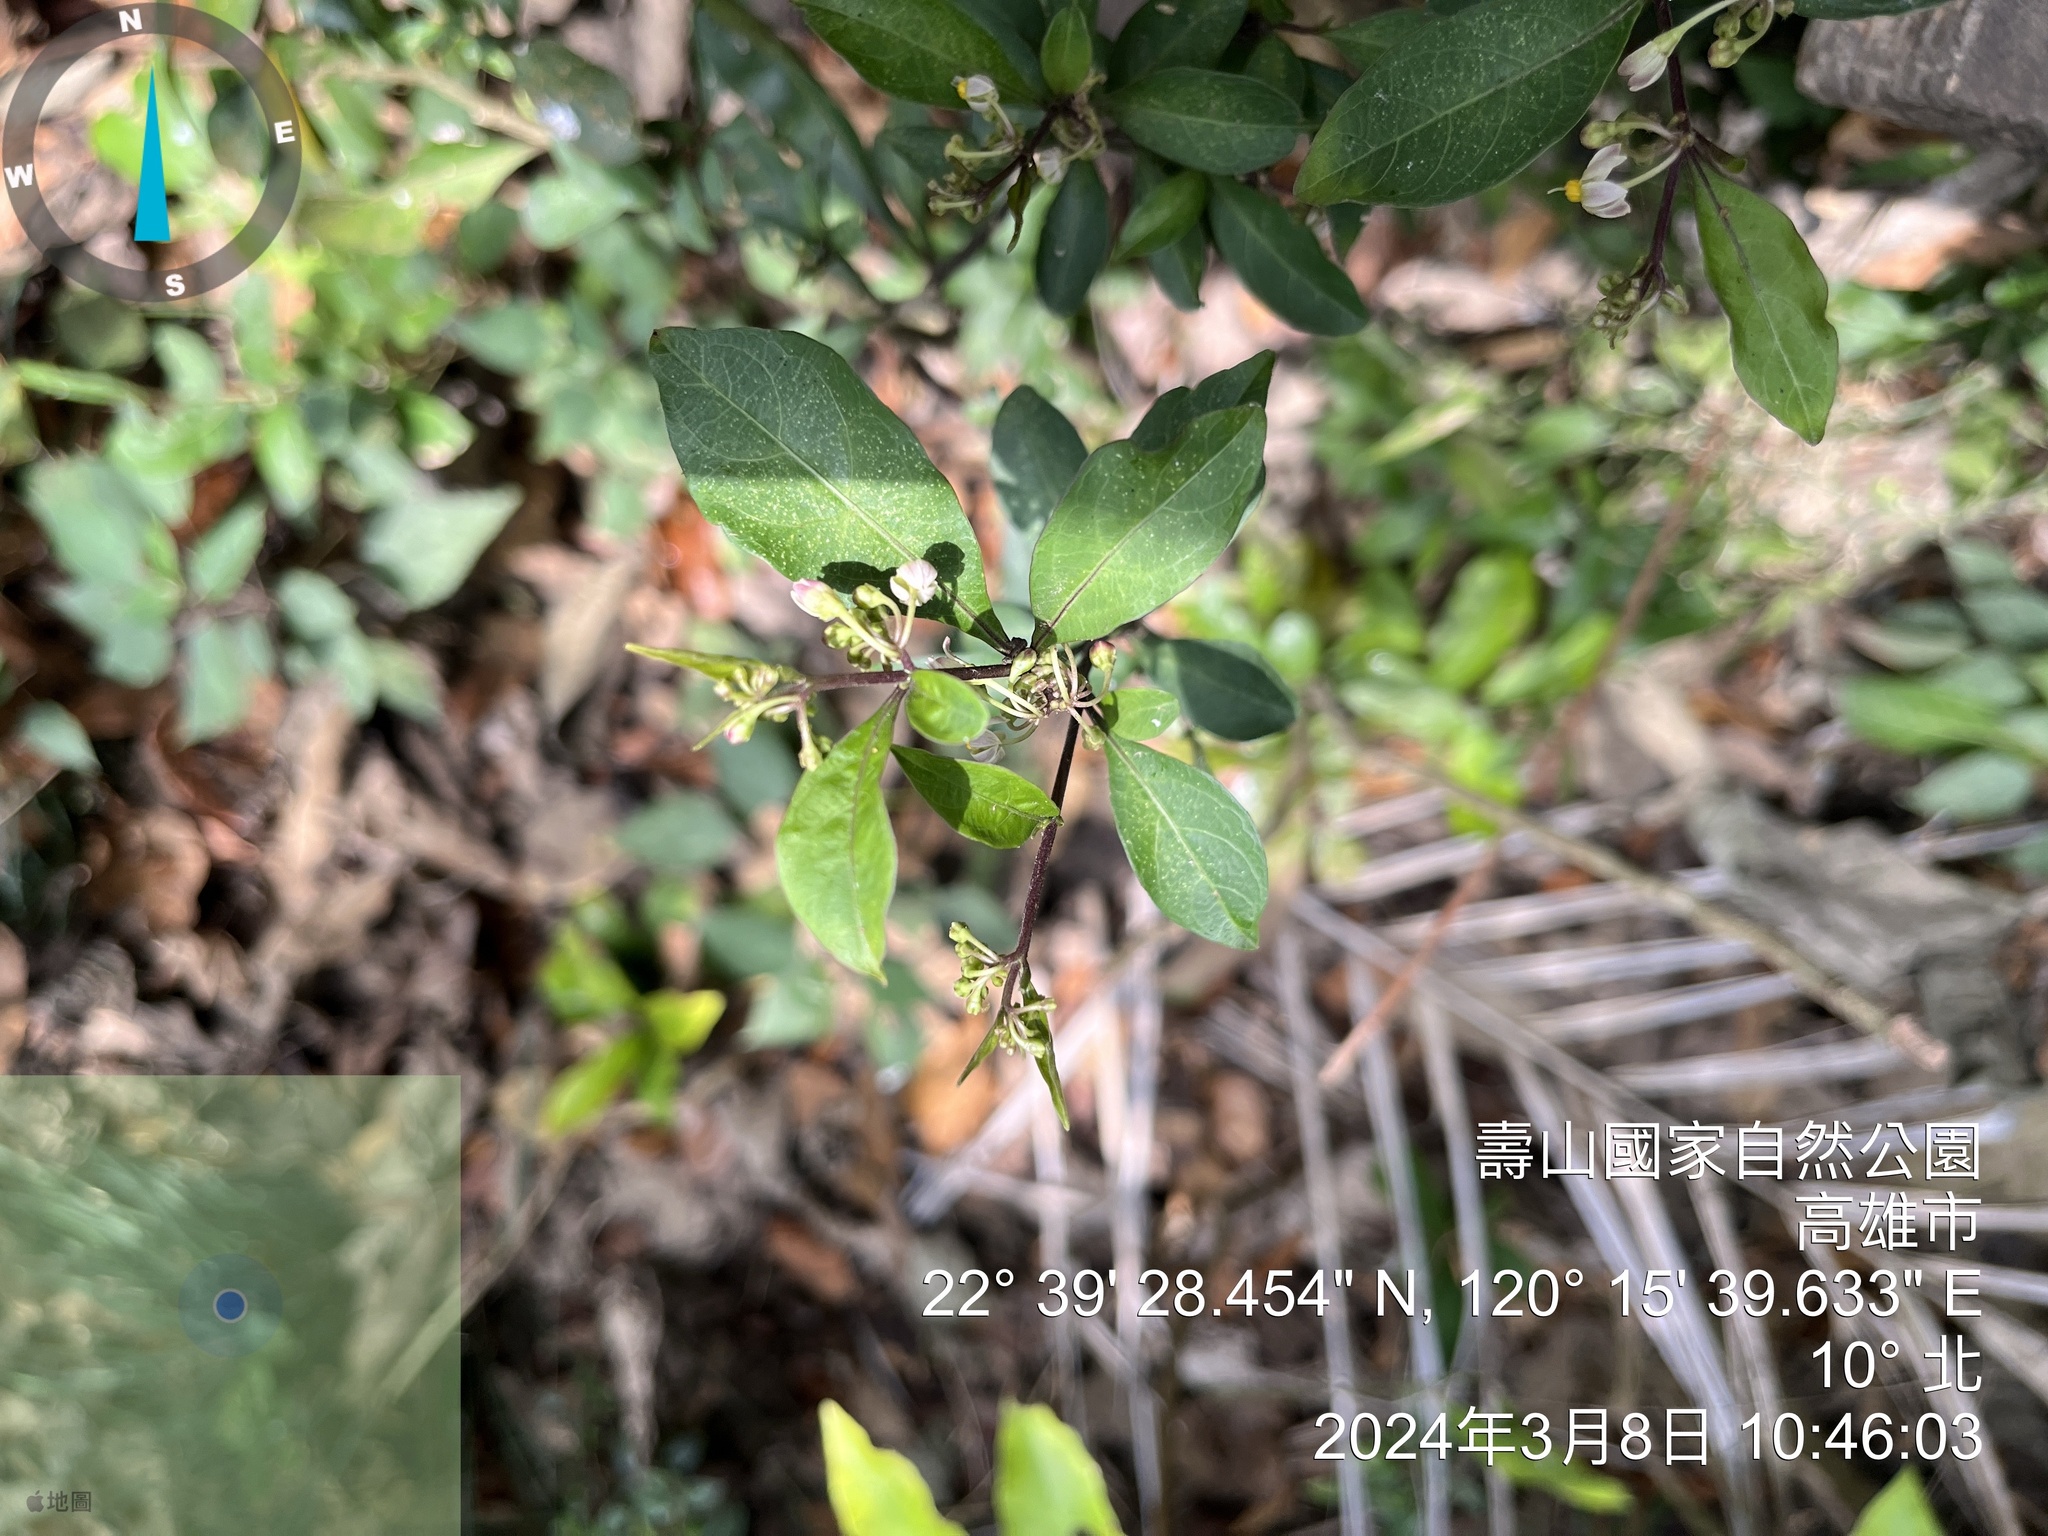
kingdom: Plantae
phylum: Tracheophyta
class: Magnoliopsida
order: Solanales
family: Solanaceae
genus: Solanum
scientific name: Solanum diphyllum
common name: Twoleaf nightshade
